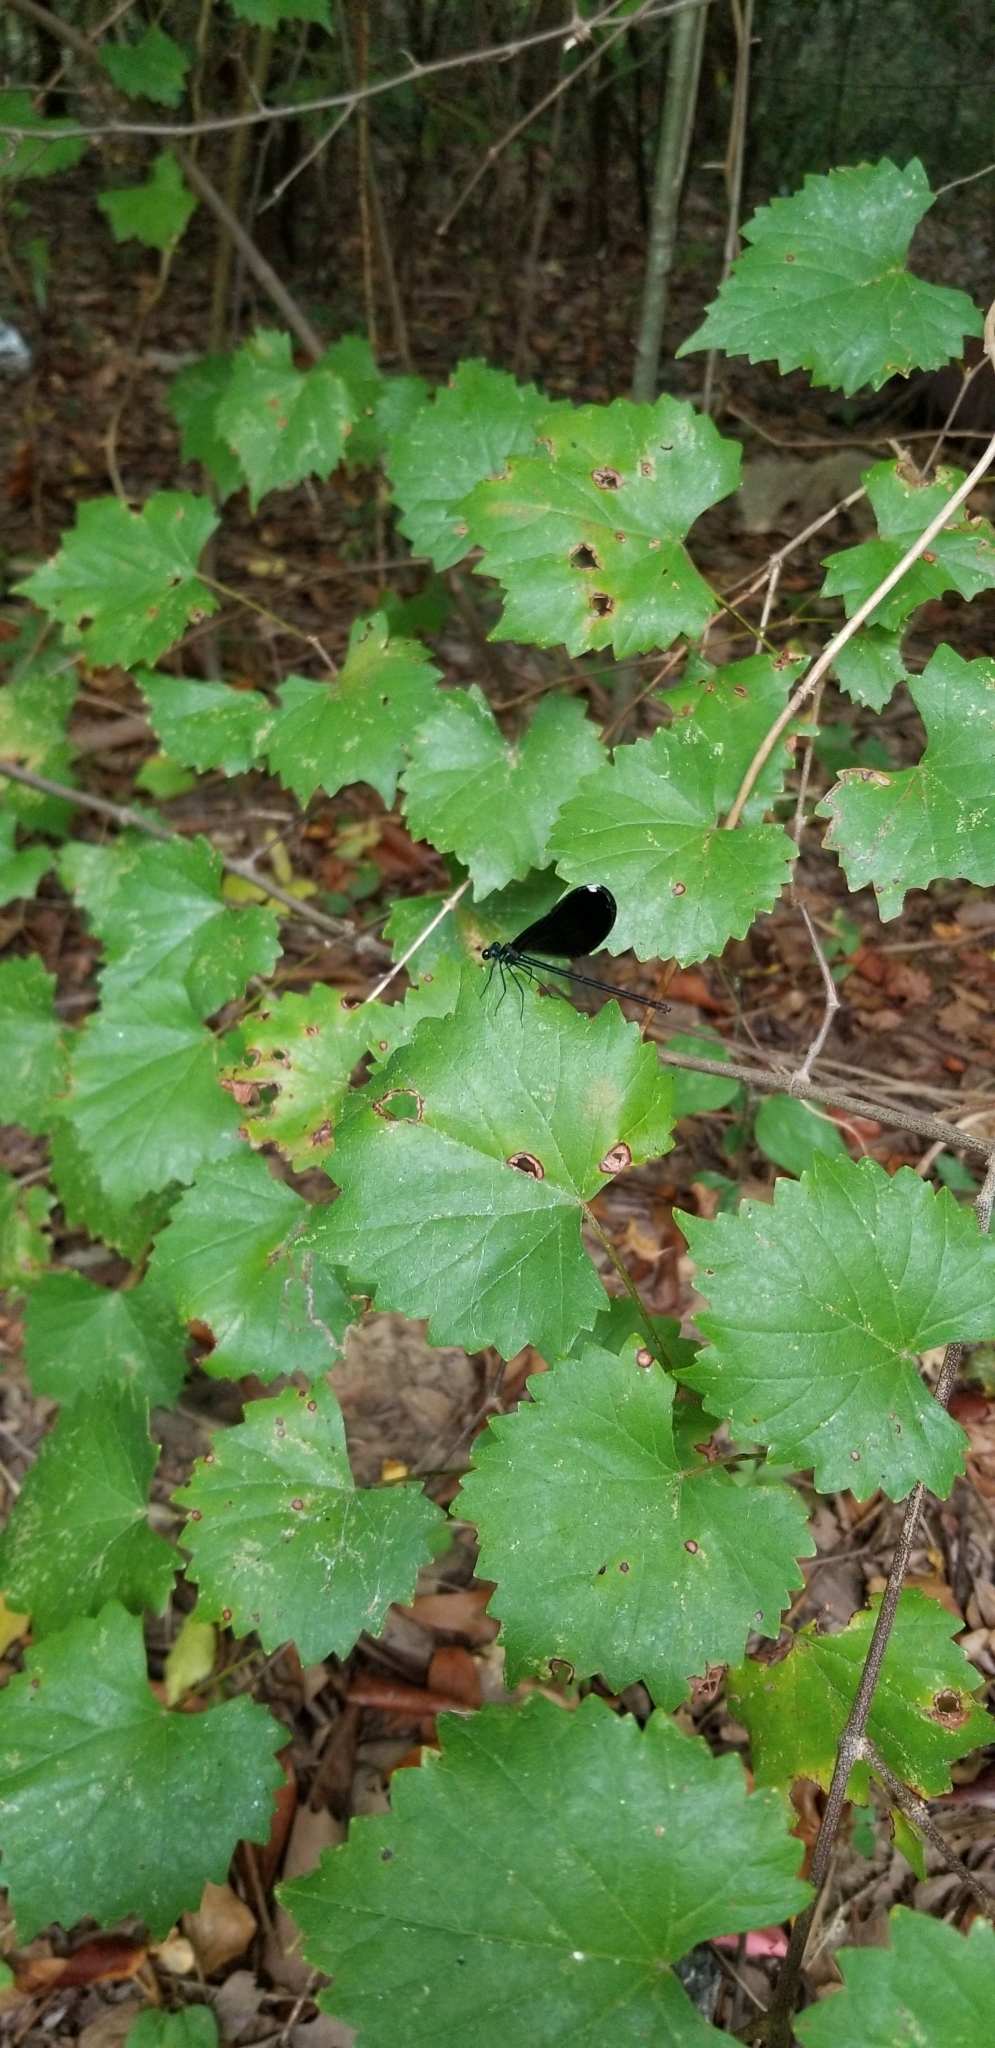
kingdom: Animalia
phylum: Arthropoda
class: Insecta
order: Odonata
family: Calopterygidae
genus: Calopteryx
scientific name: Calopteryx maculata
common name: Ebony jewelwing
